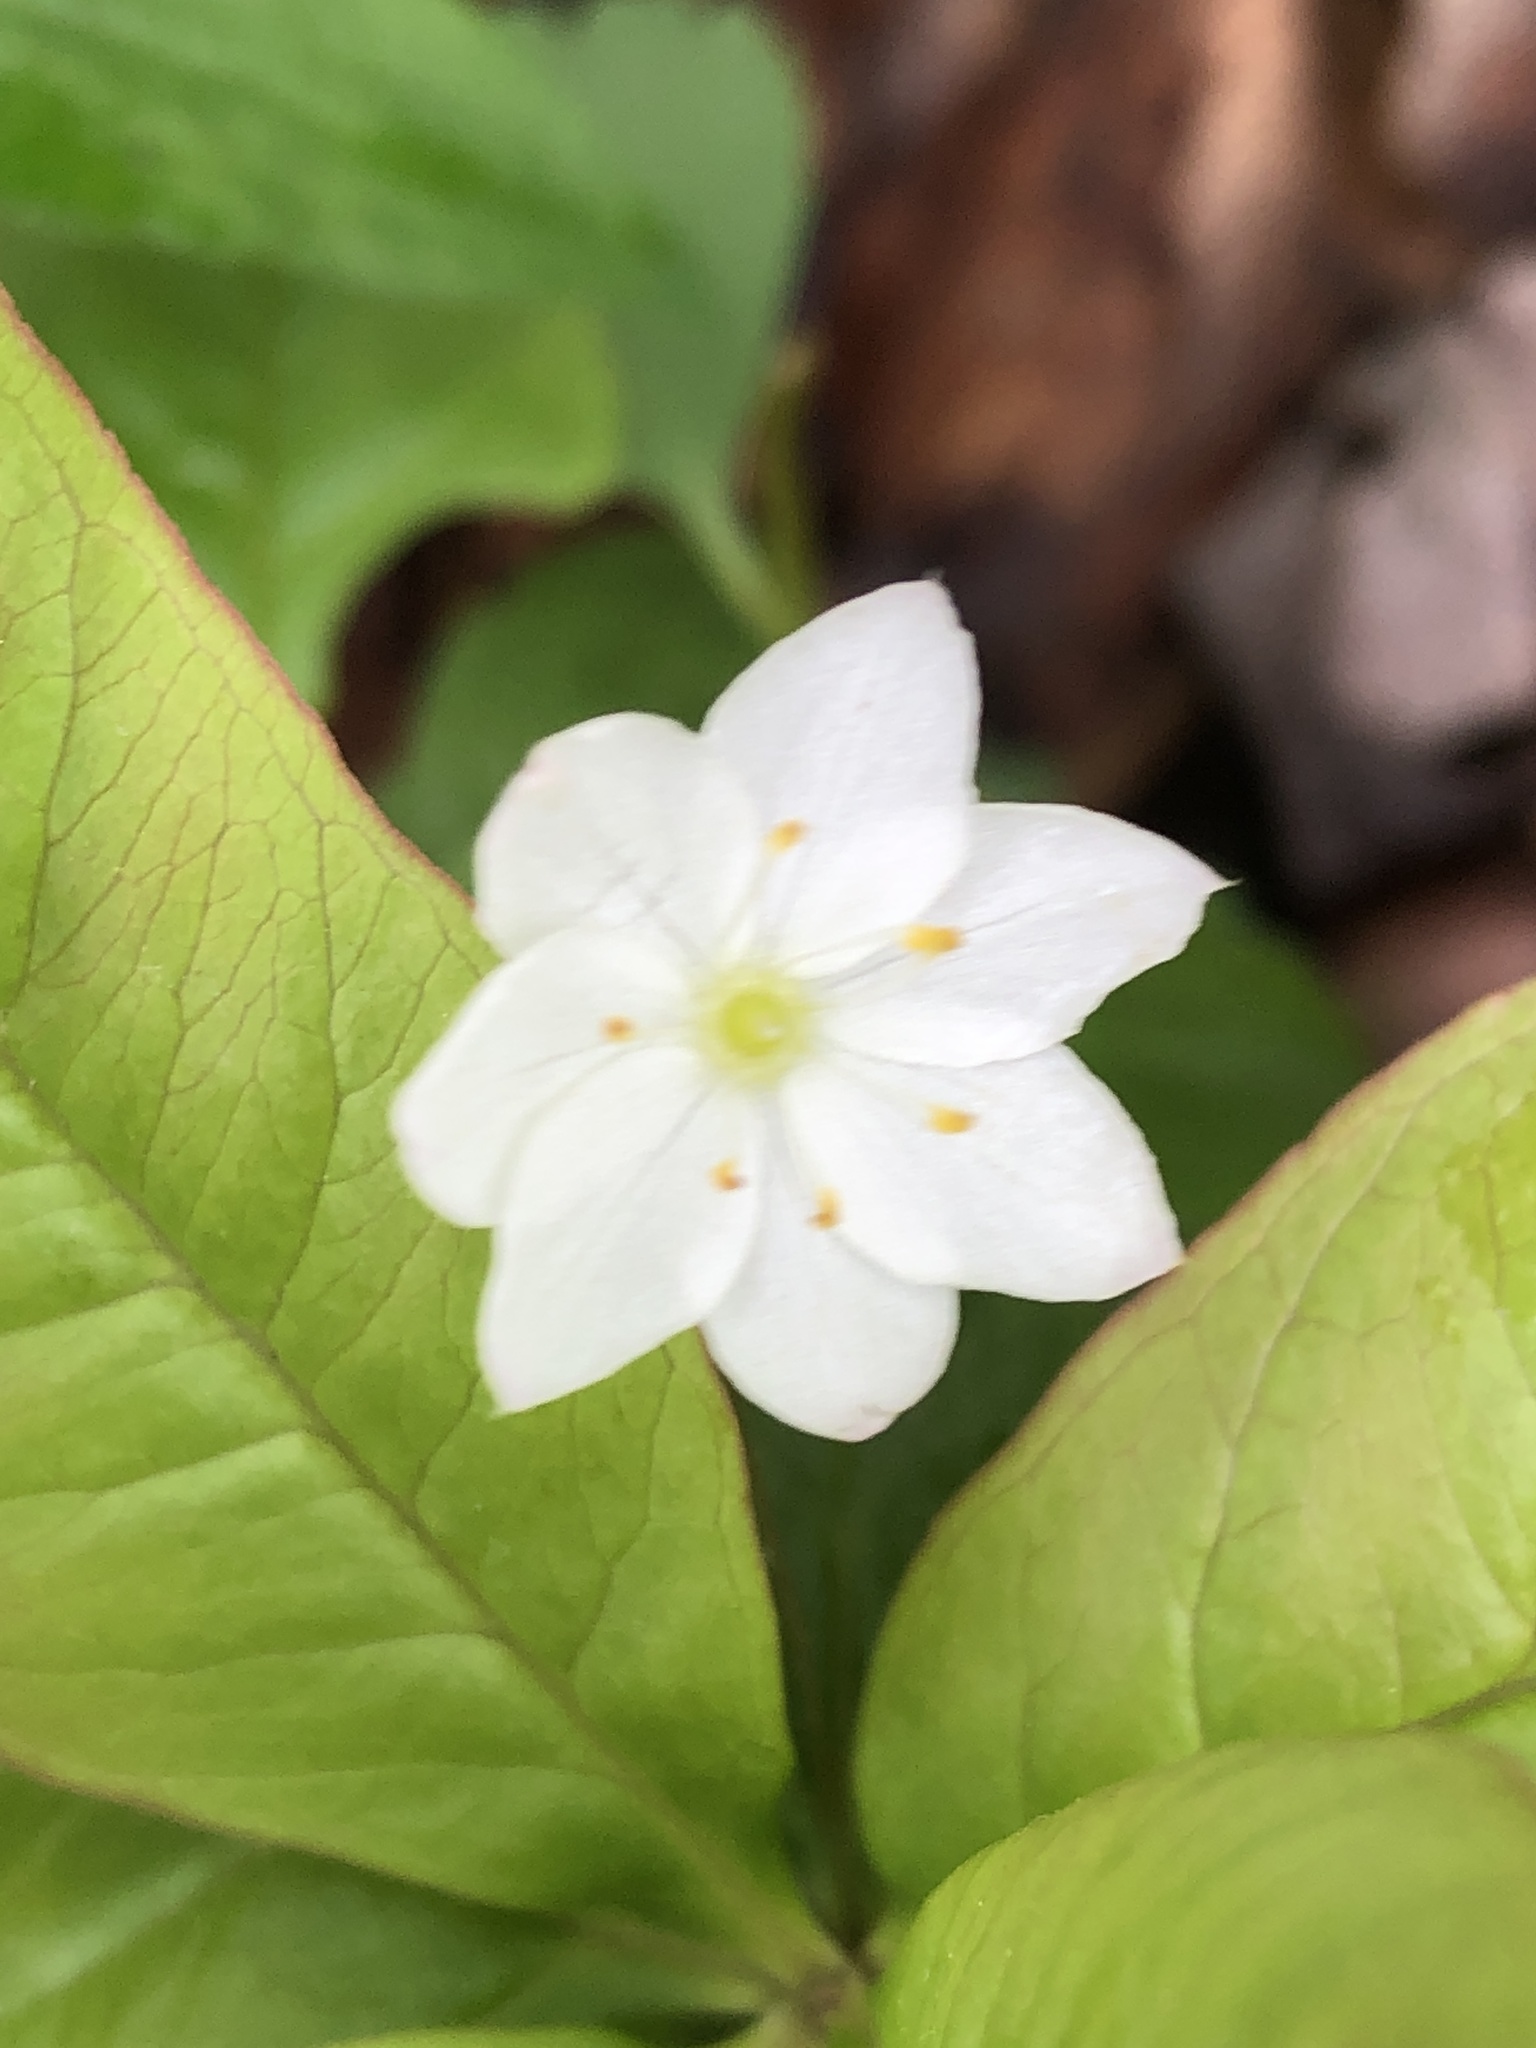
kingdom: Plantae
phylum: Tracheophyta
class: Magnoliopsida
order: Ericales
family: Primulaceae
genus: Lysimachia
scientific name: Lysimachia borealis
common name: American starflower
